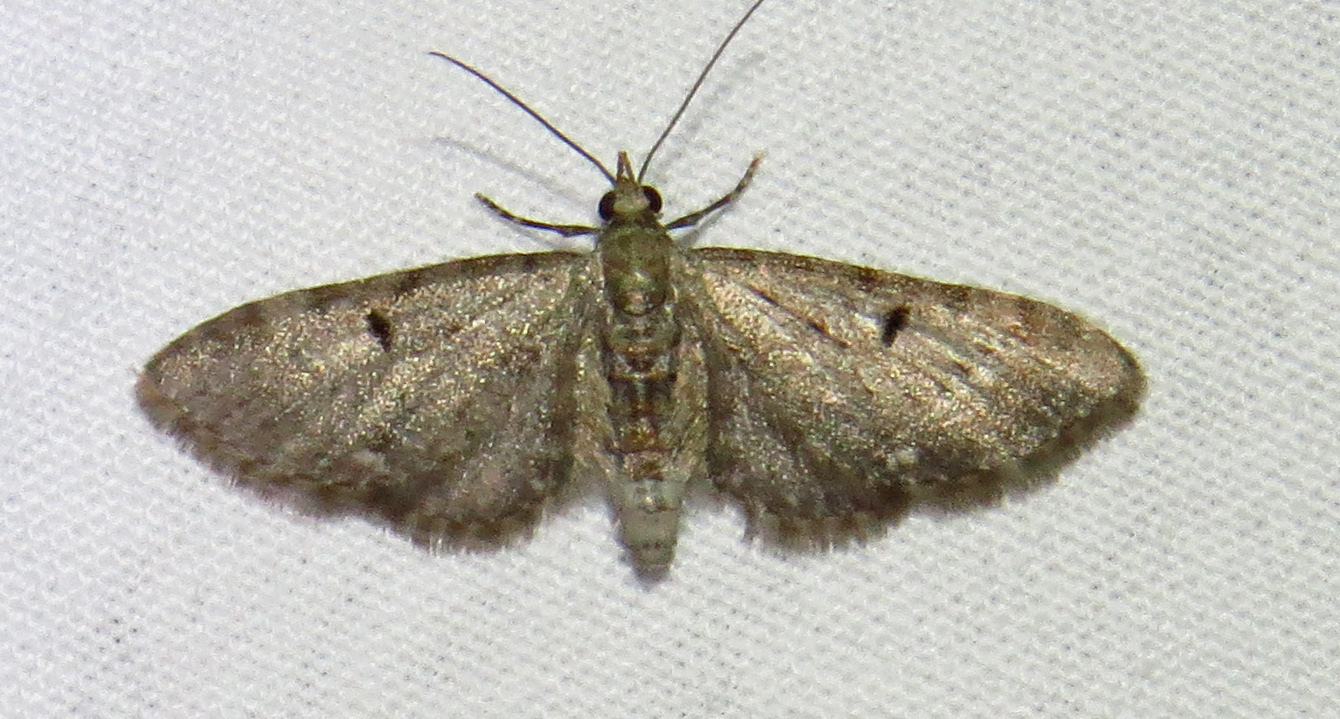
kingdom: Animalia
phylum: Arthropoda
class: Insecta
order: Lepidoptera
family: Geometridae
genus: Eupithecia
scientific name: Eupithecia miserulata
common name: Common eupithecia
